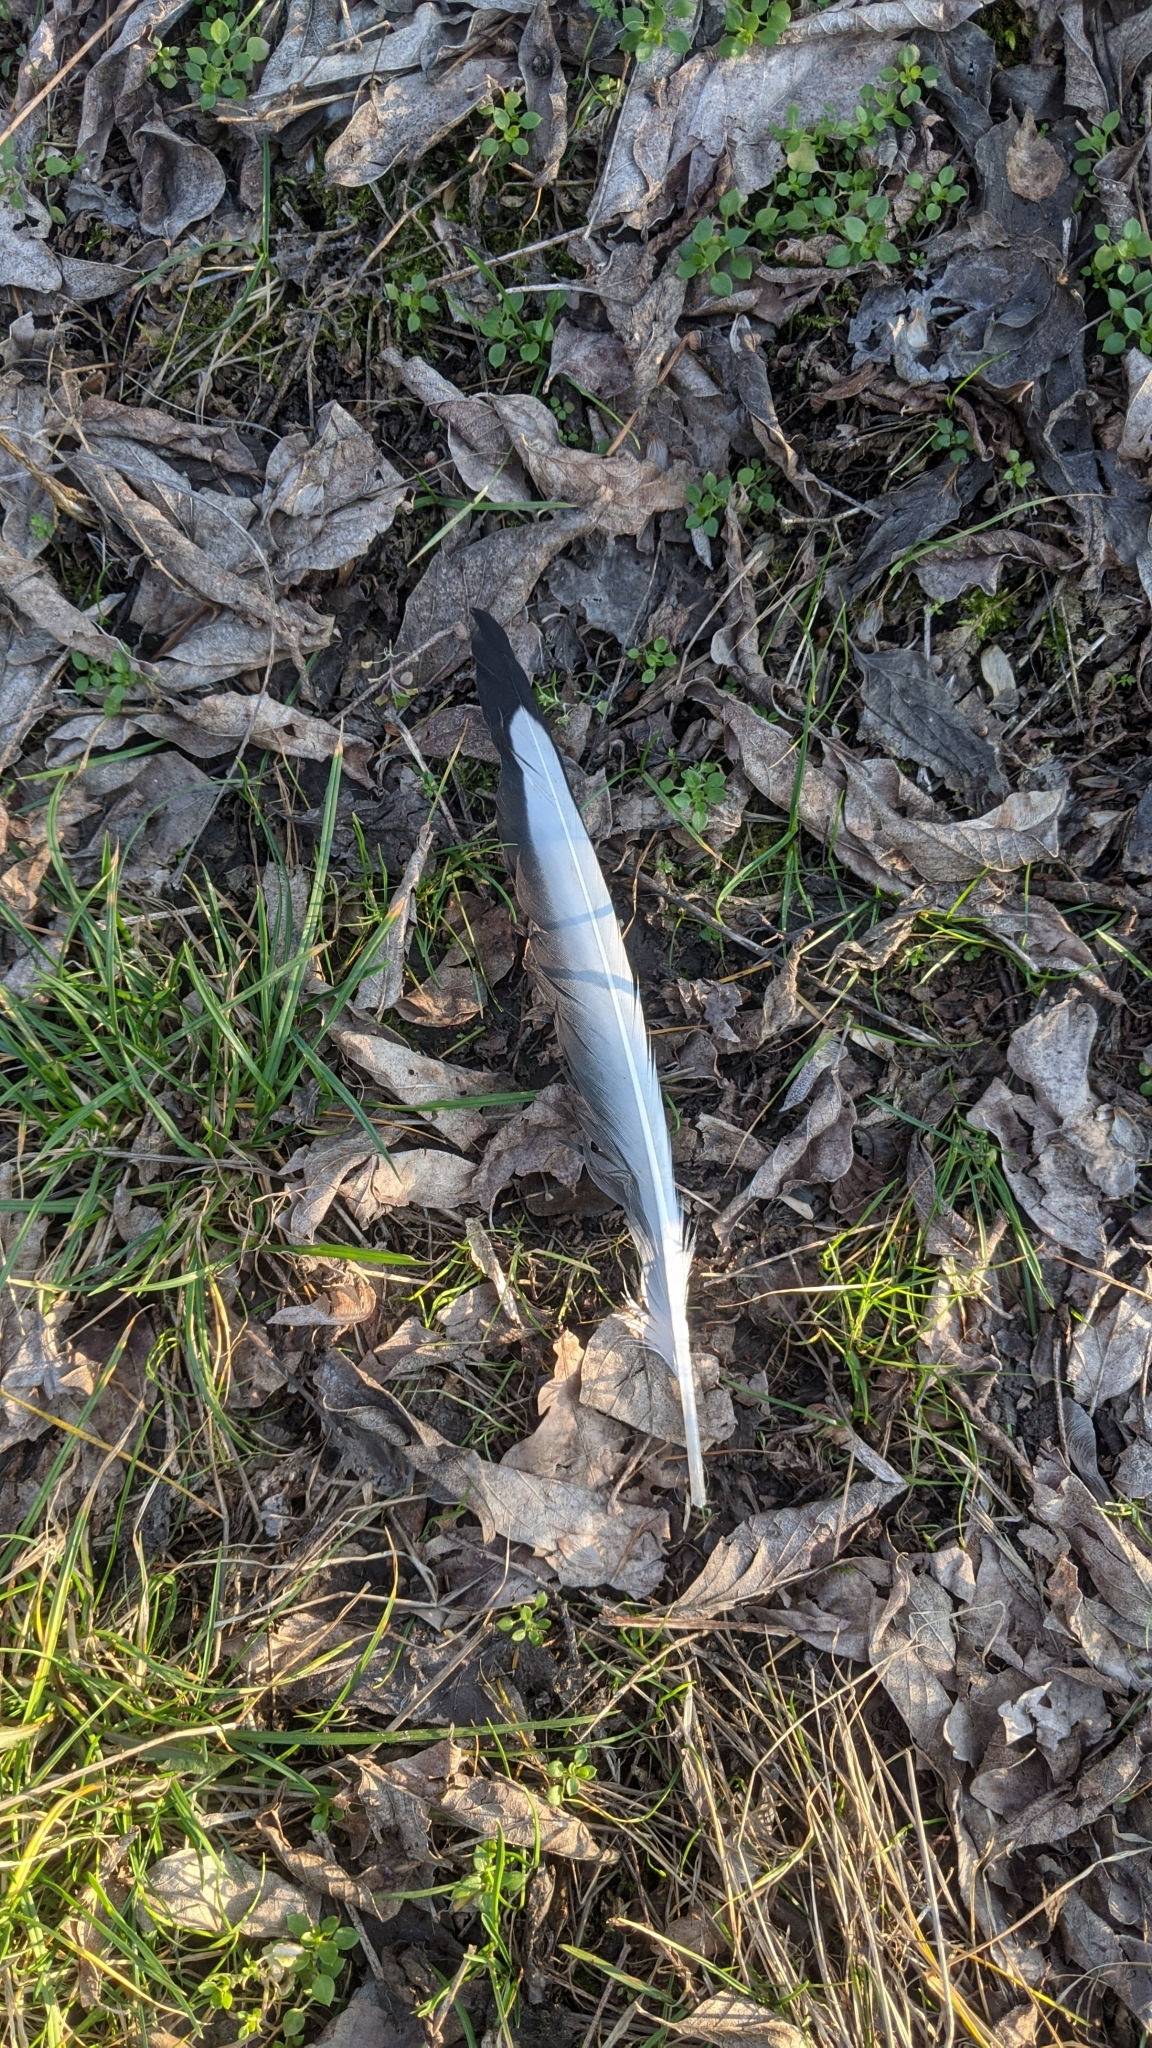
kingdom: Animalia
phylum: Chordata
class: Aves
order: Charadriiformes
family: Laridae
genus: Chroicocephalus
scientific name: Chroicocephalus ridibundus
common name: Black-headed gull
